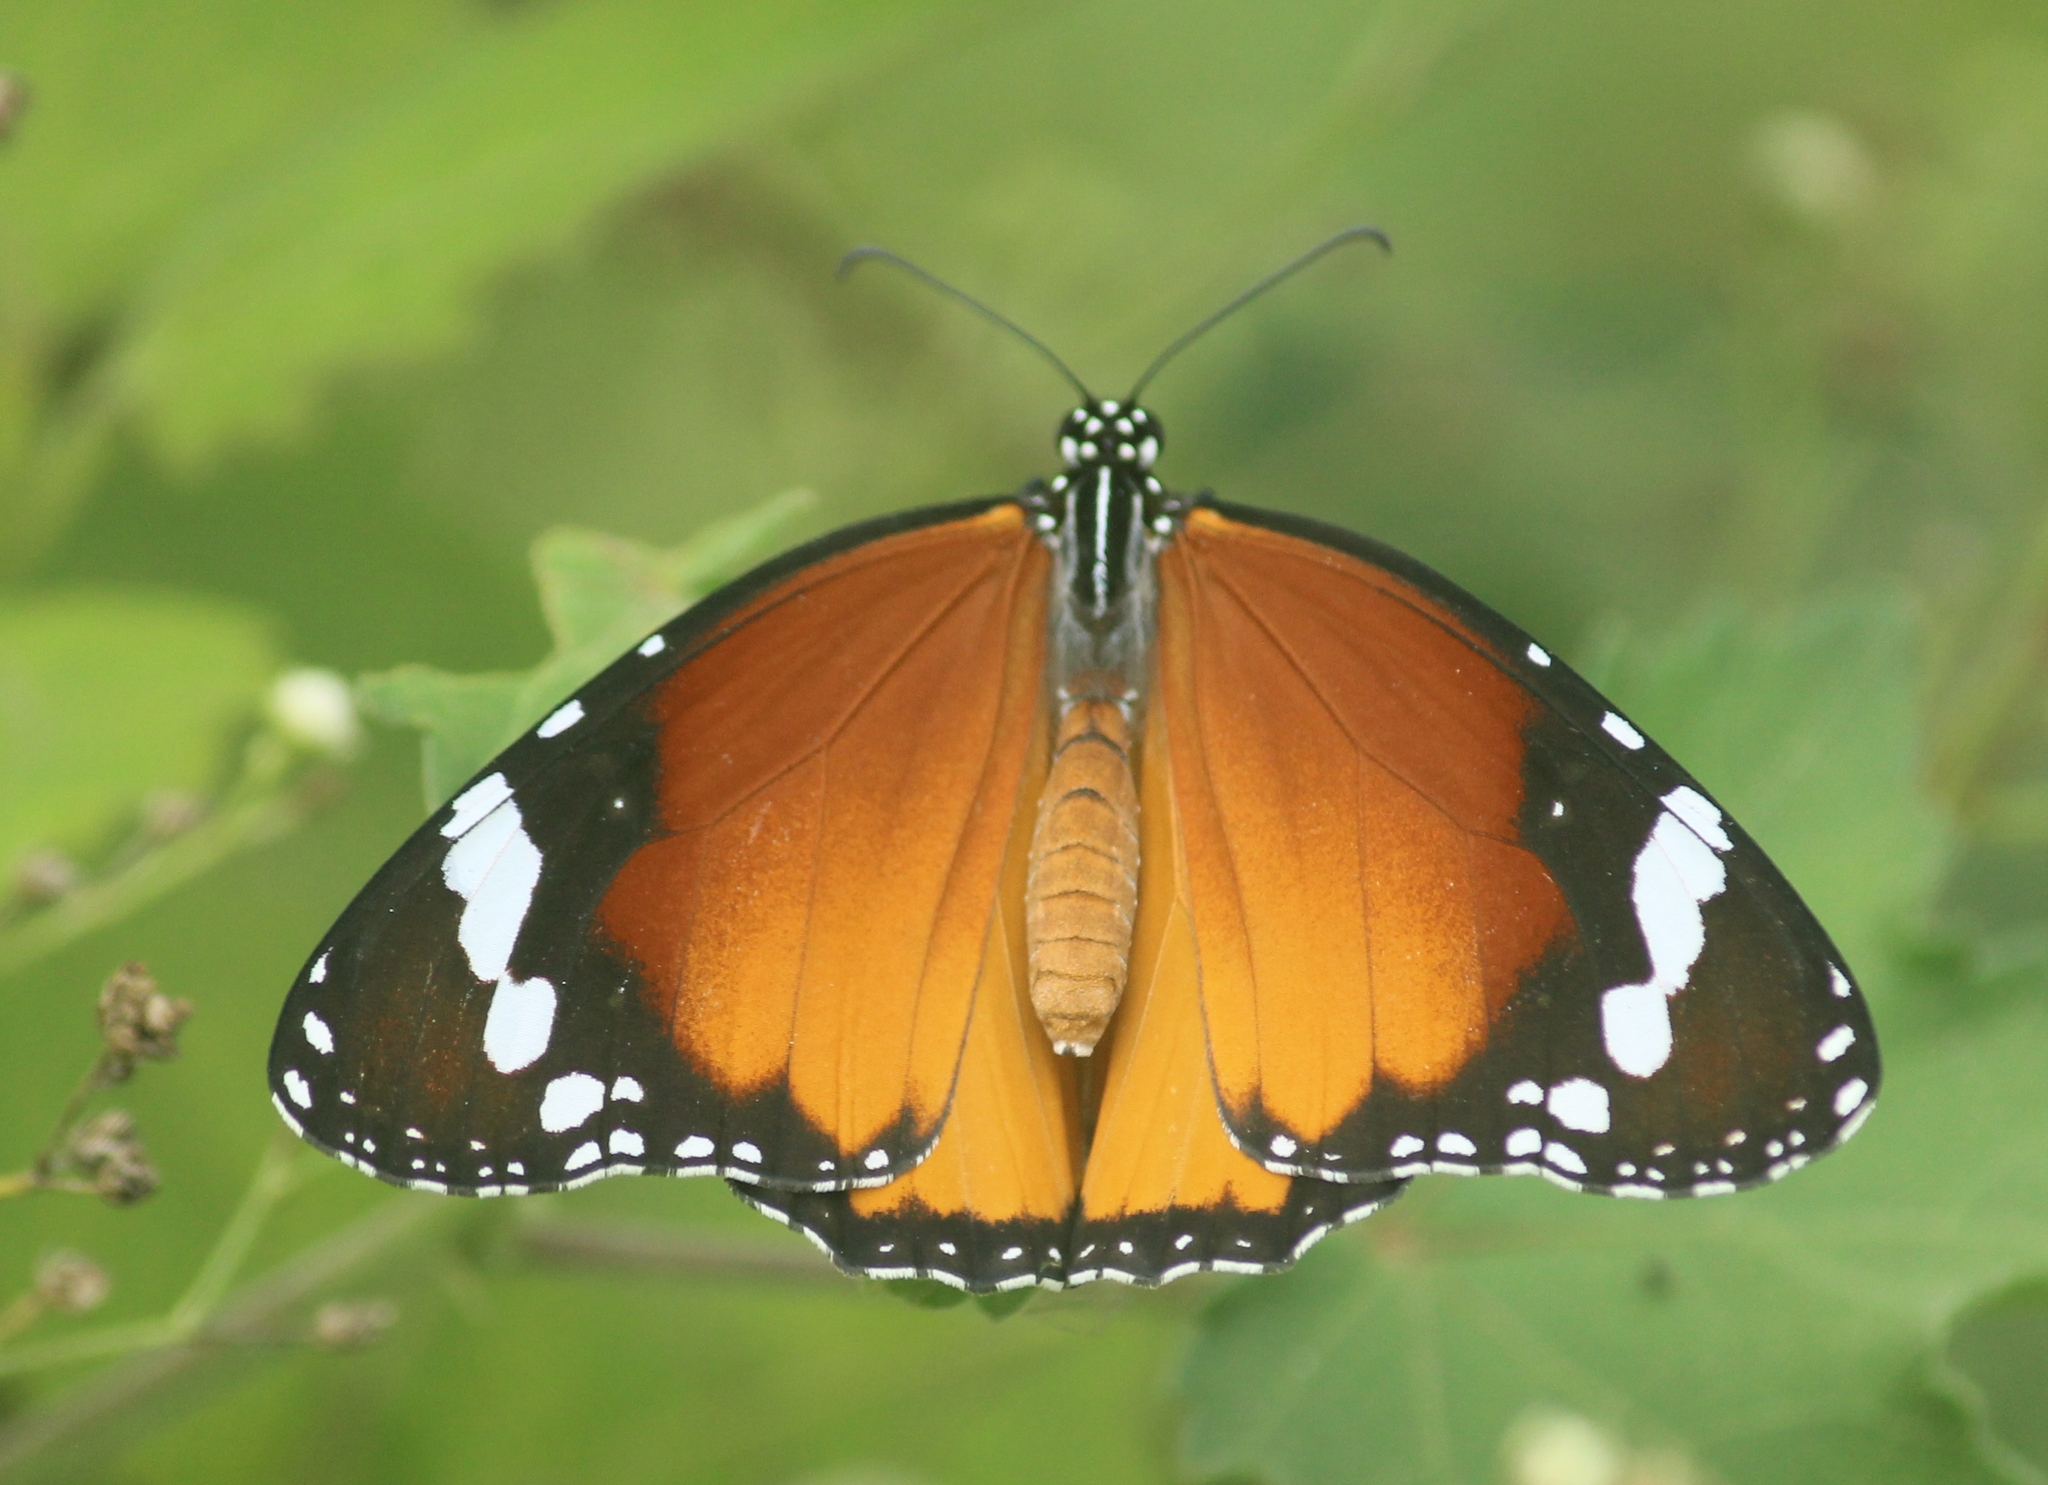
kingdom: Animalia
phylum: Arthropoda
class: Insecta
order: Lepidoptera
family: Nymphalidae
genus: Danaus
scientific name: Danaus chrysippus
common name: Plain tiger
